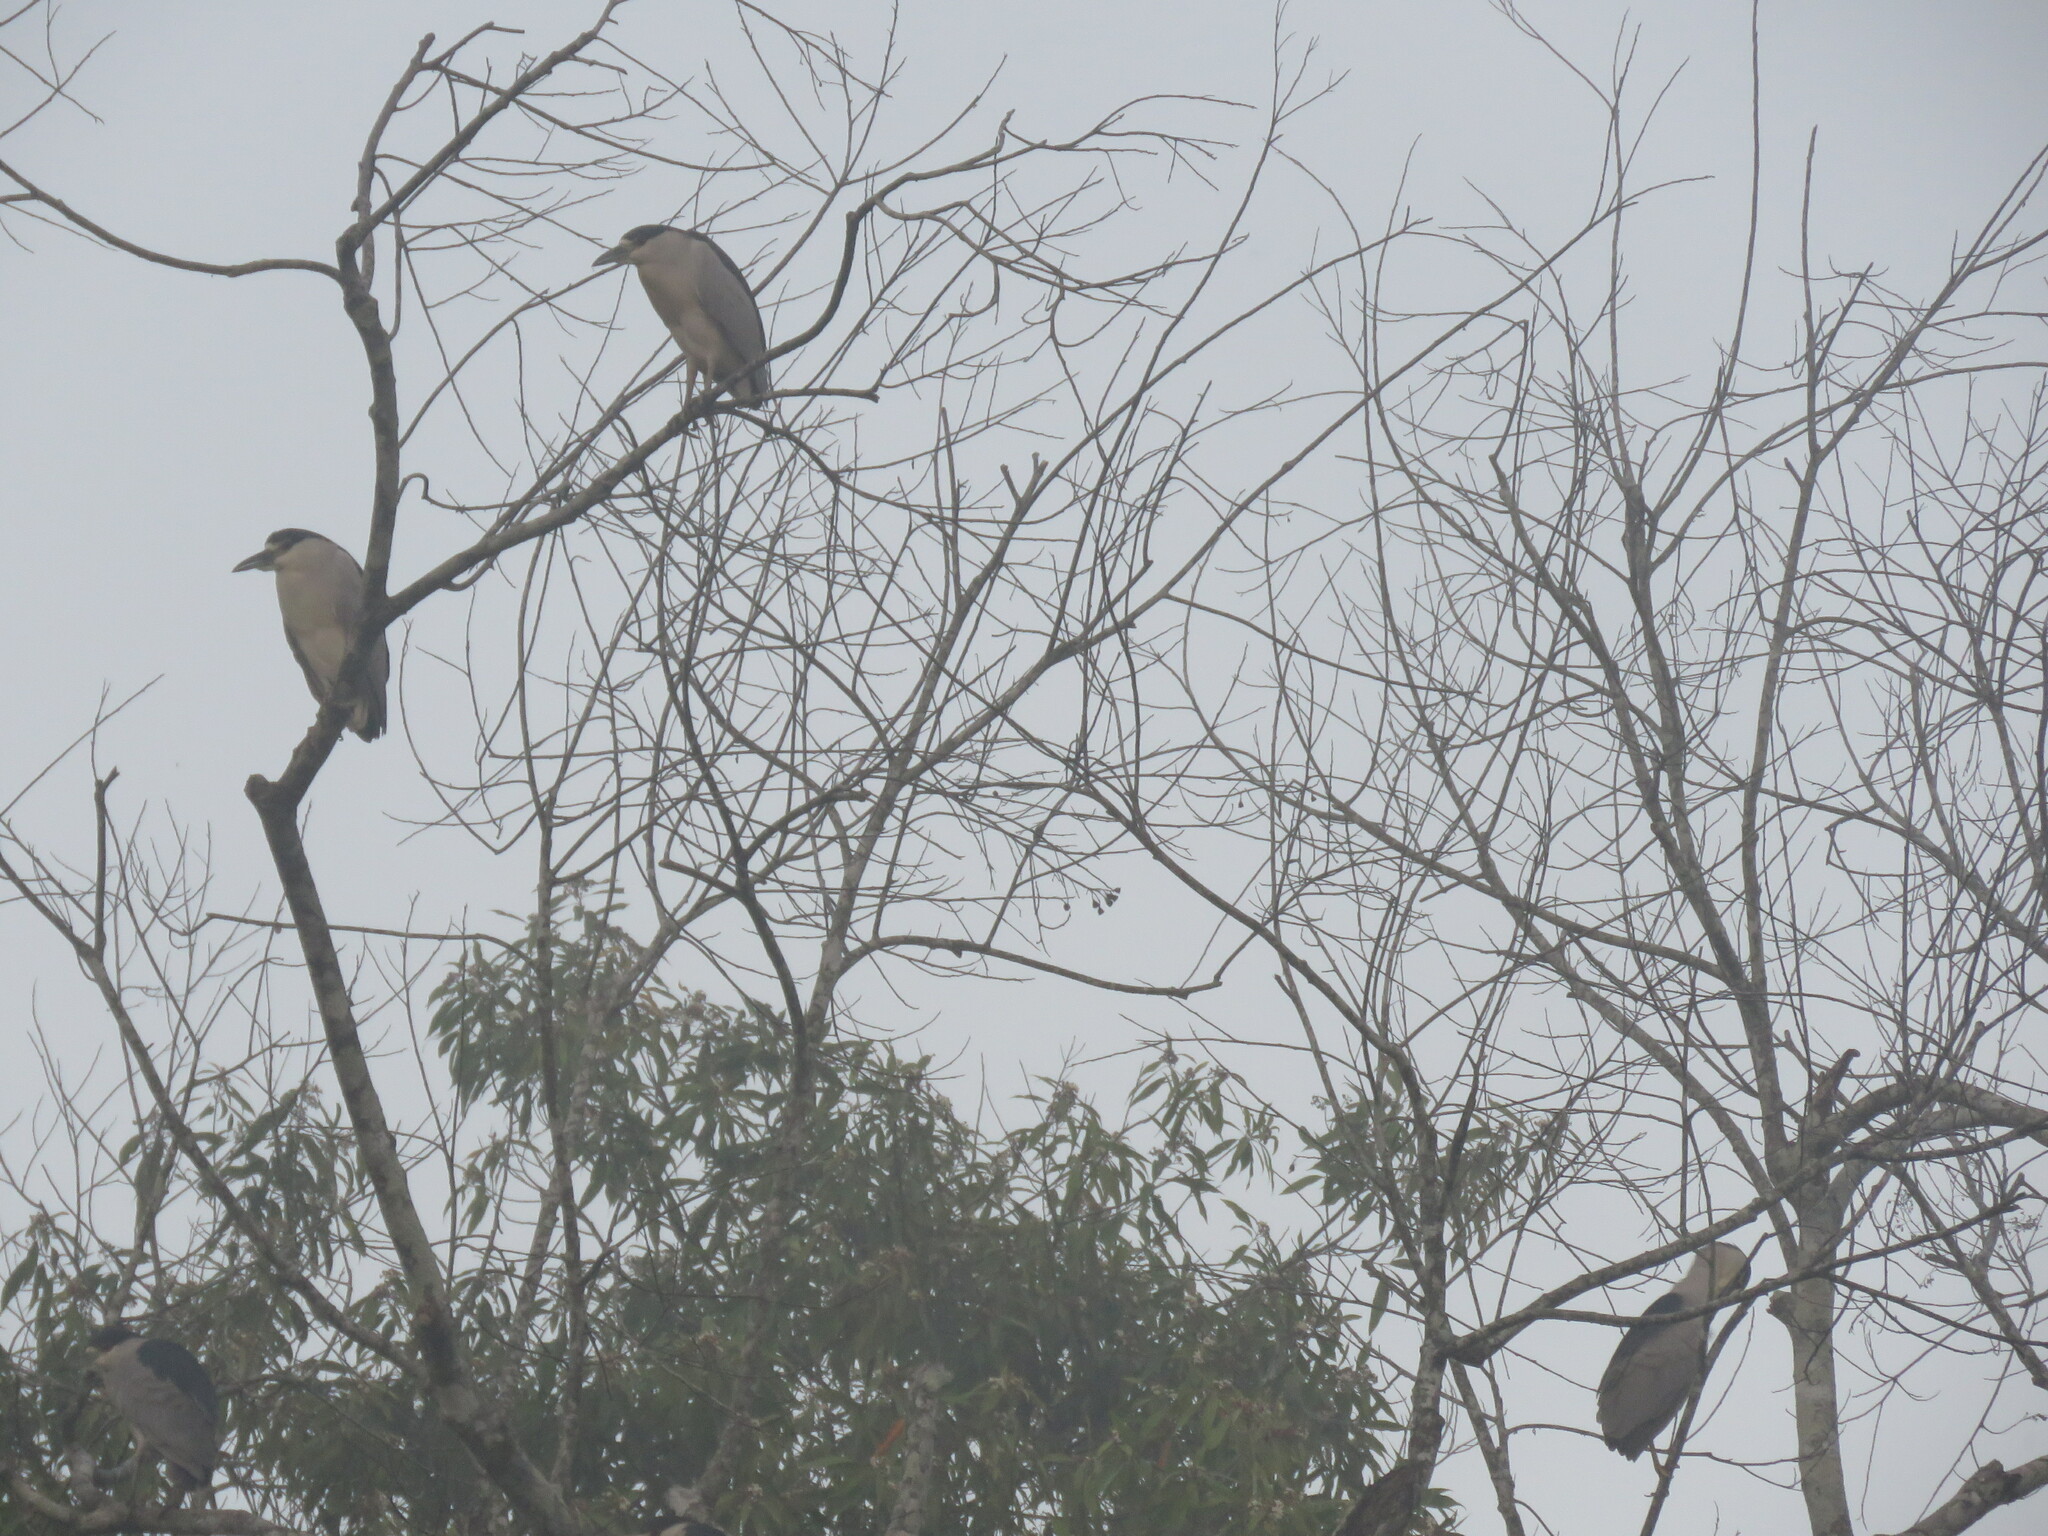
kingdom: Animalia
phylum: Chordata
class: Aves
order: Pelecaniformes
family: Ardeidae
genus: Nycticorax
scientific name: Nycticorax nycticorax
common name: Black-crowned night heron
